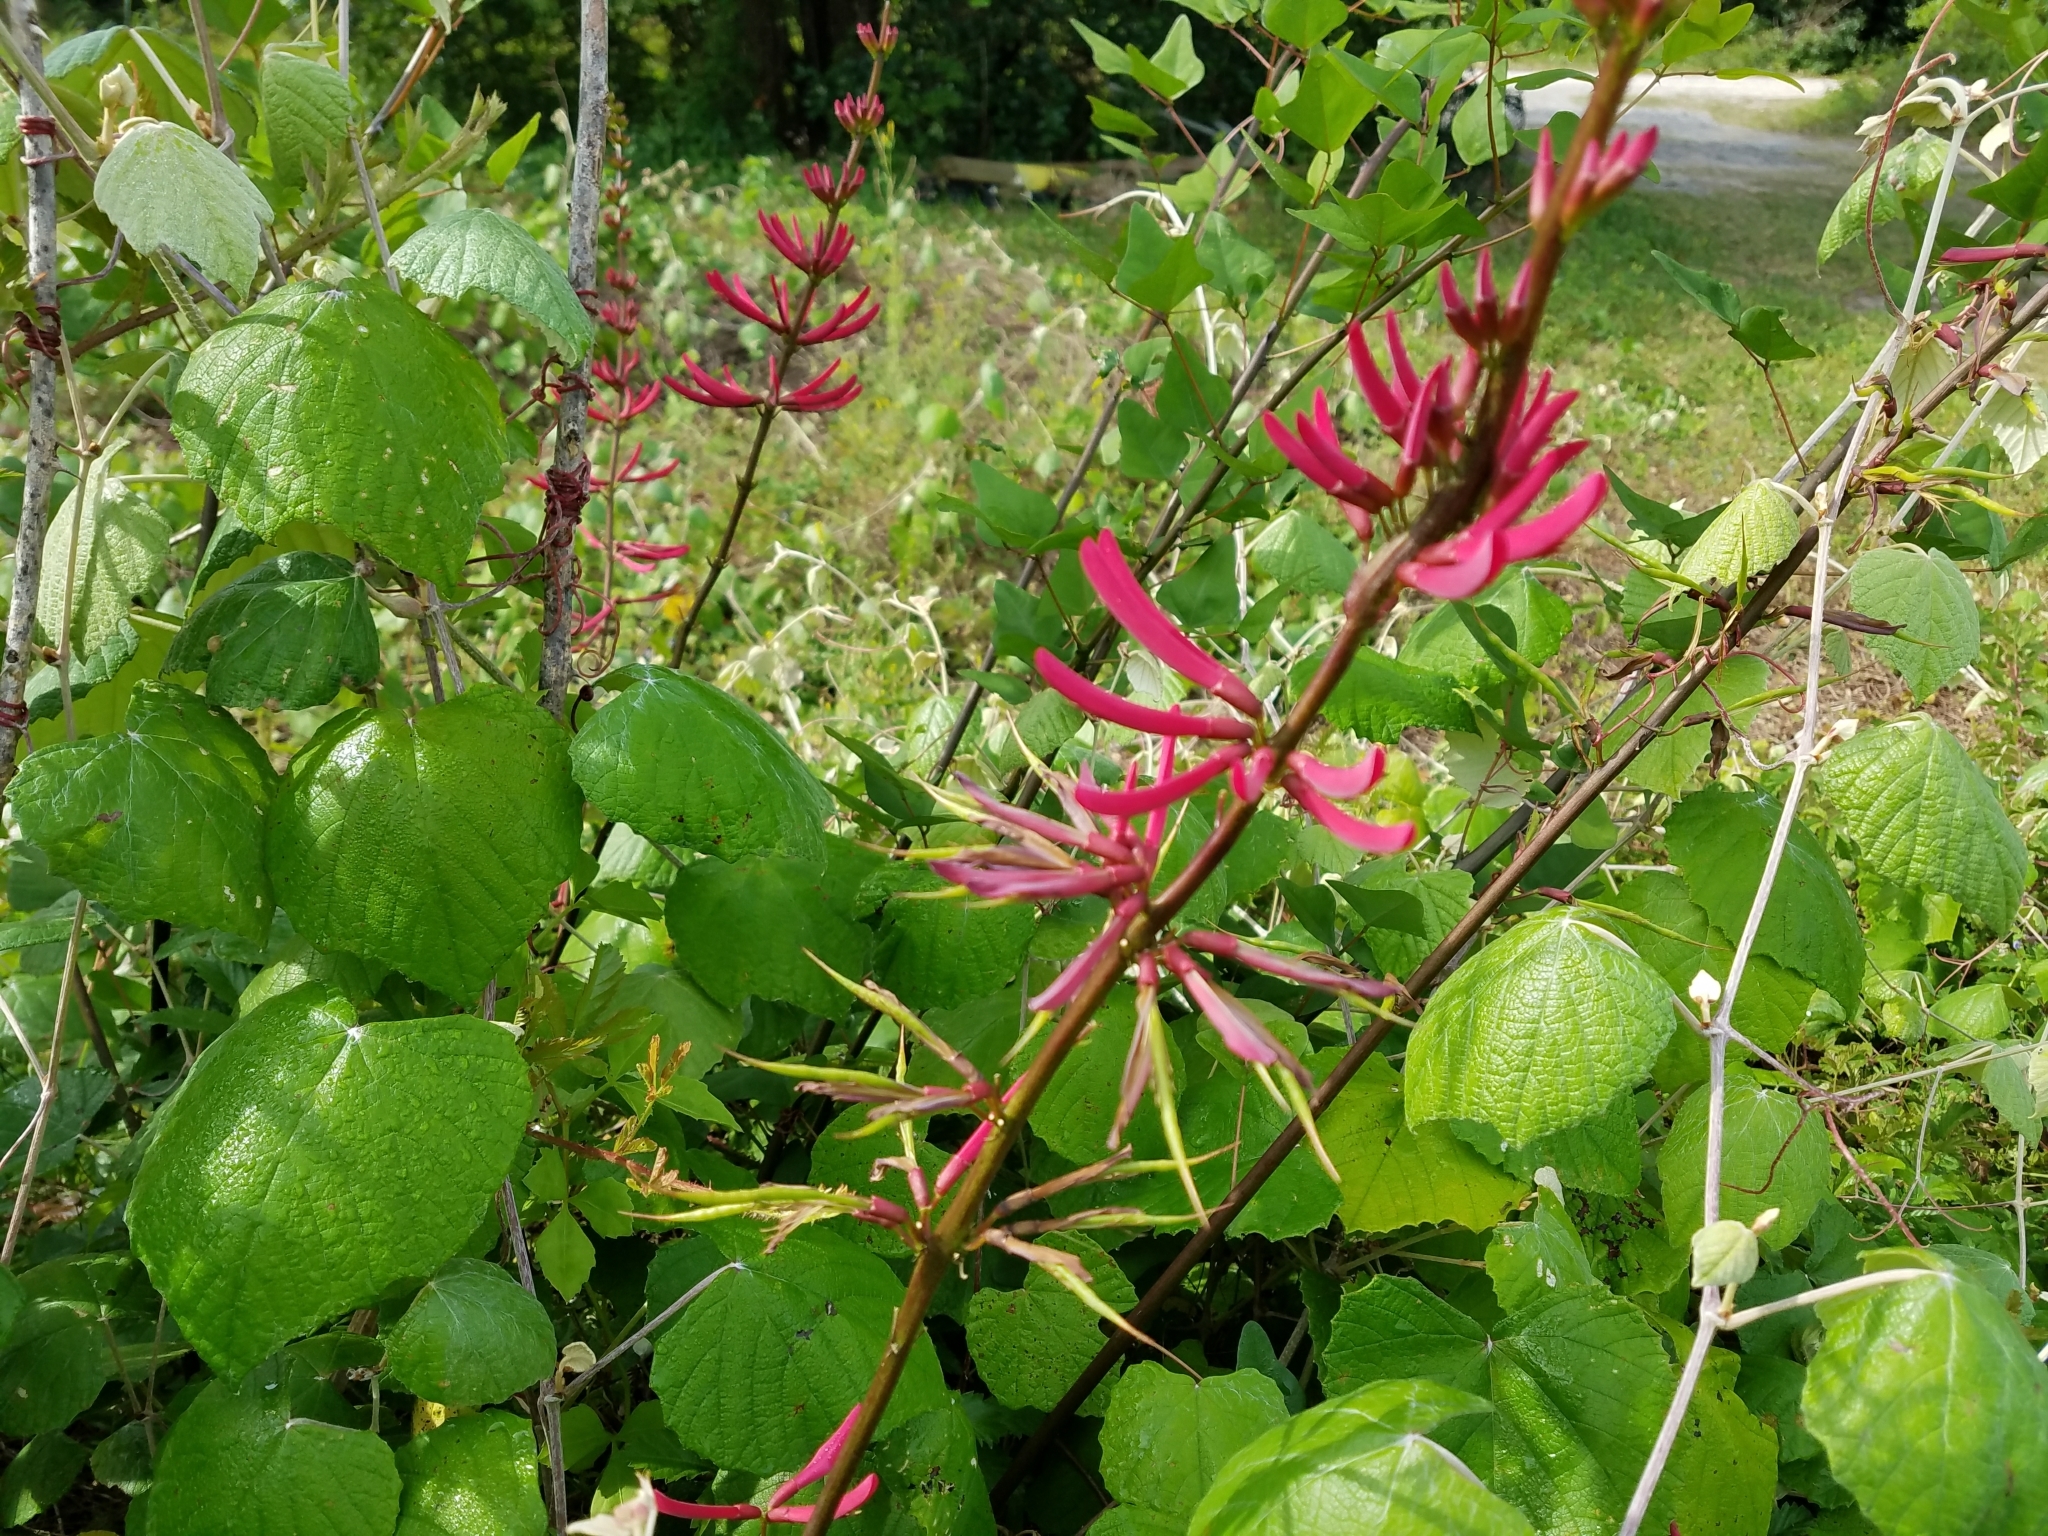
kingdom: Plantae
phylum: Tracheophyta
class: Magnoliopsida
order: Fabales
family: Fabaceae
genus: Erythrina
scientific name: Erythrina herbacea
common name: Coral-bean
